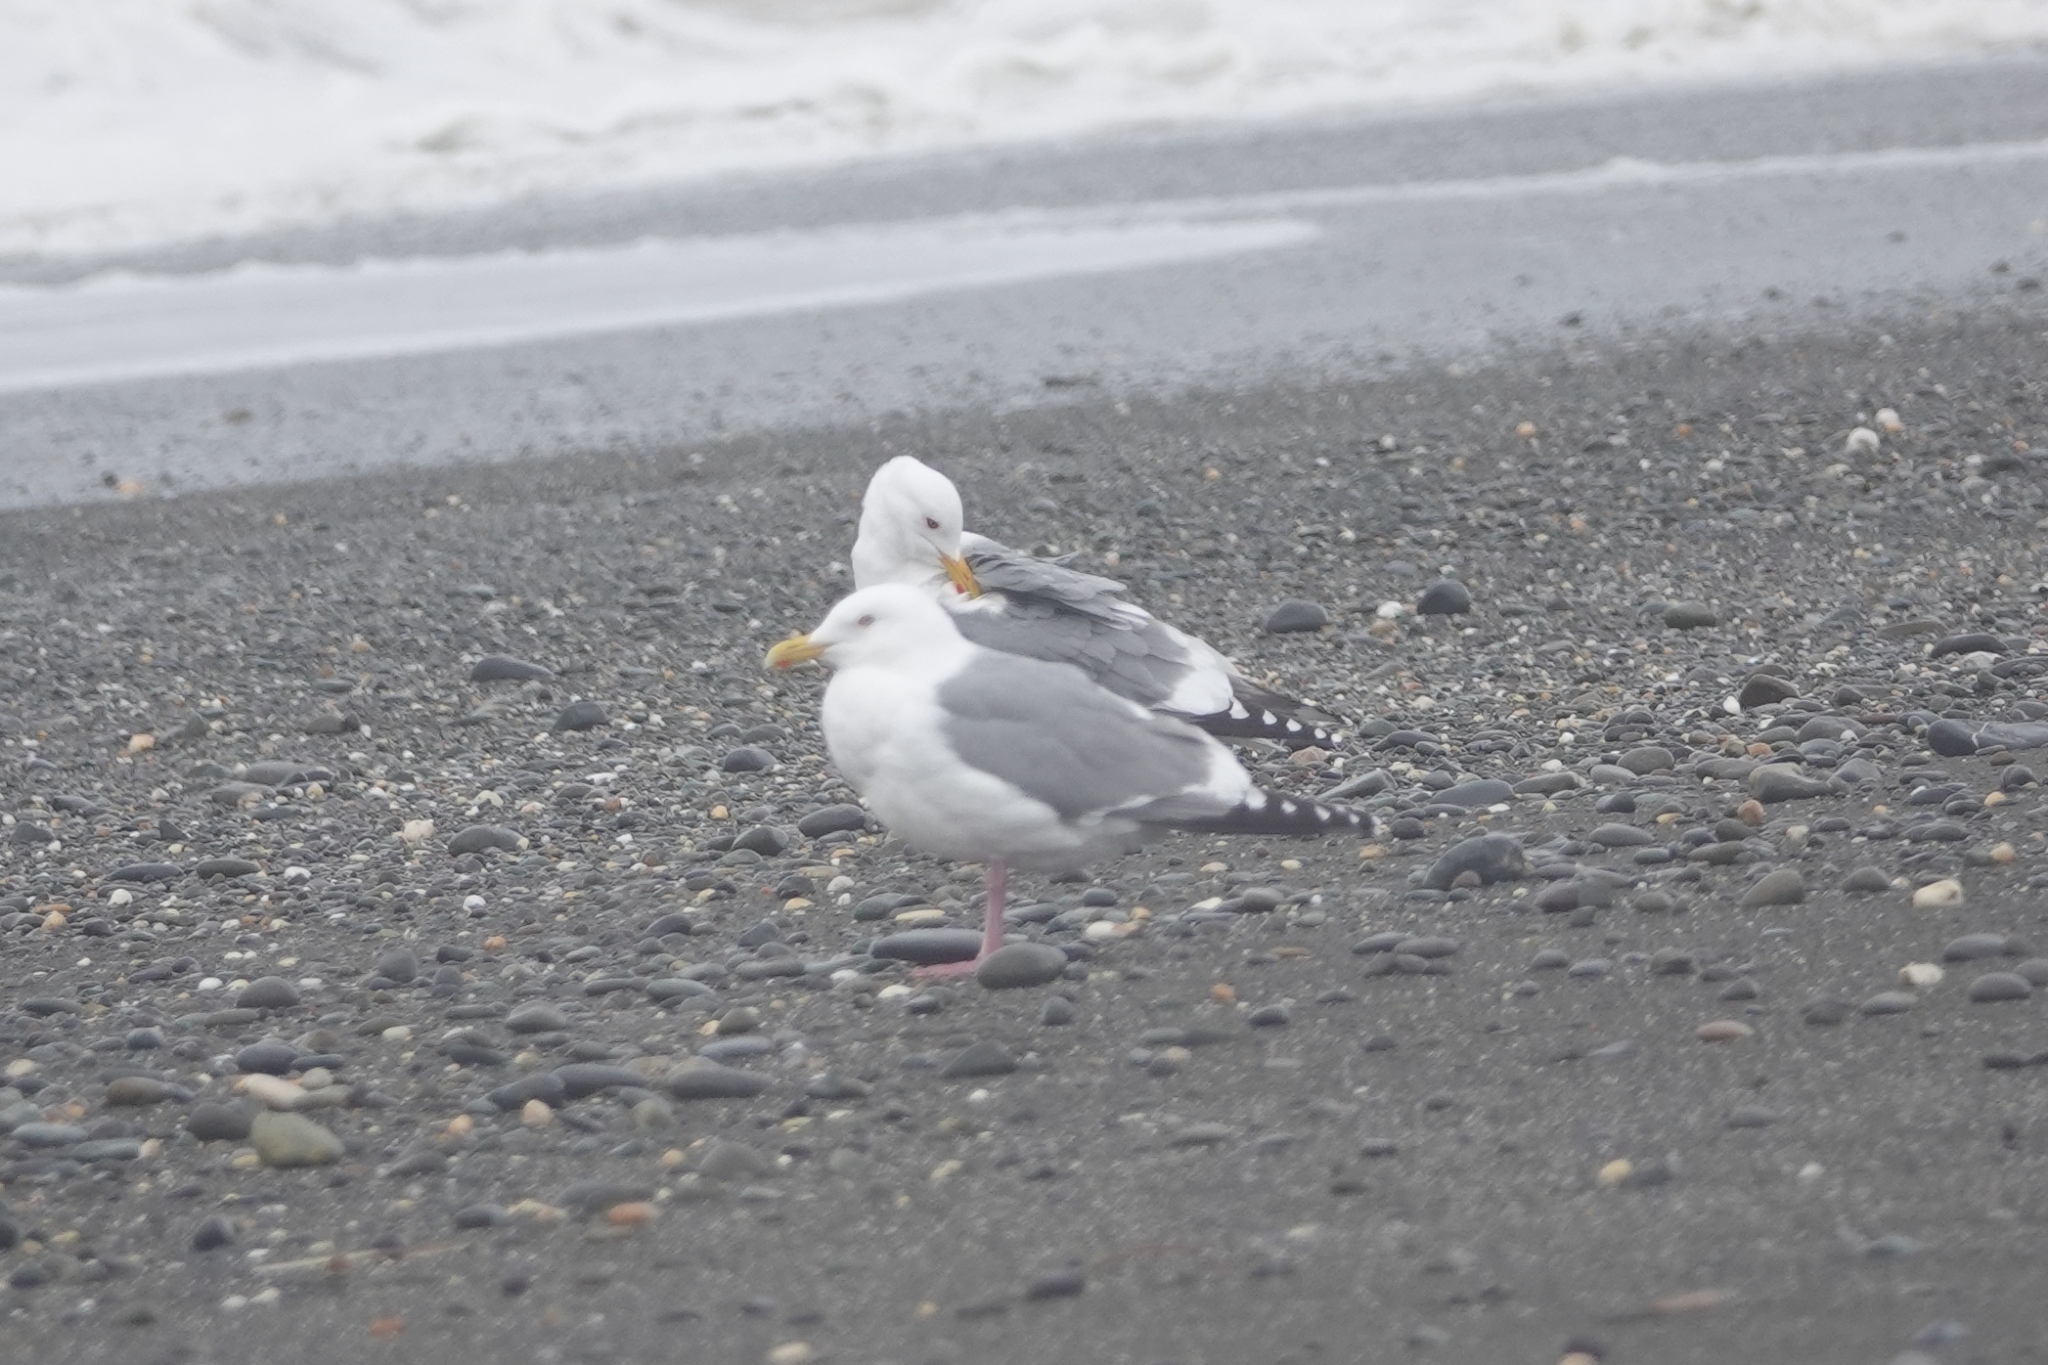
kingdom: Animalia
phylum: Chordata
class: Aves
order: Charadriiformes
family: Laridae
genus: Larus
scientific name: Larus vegae
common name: Vega gull
